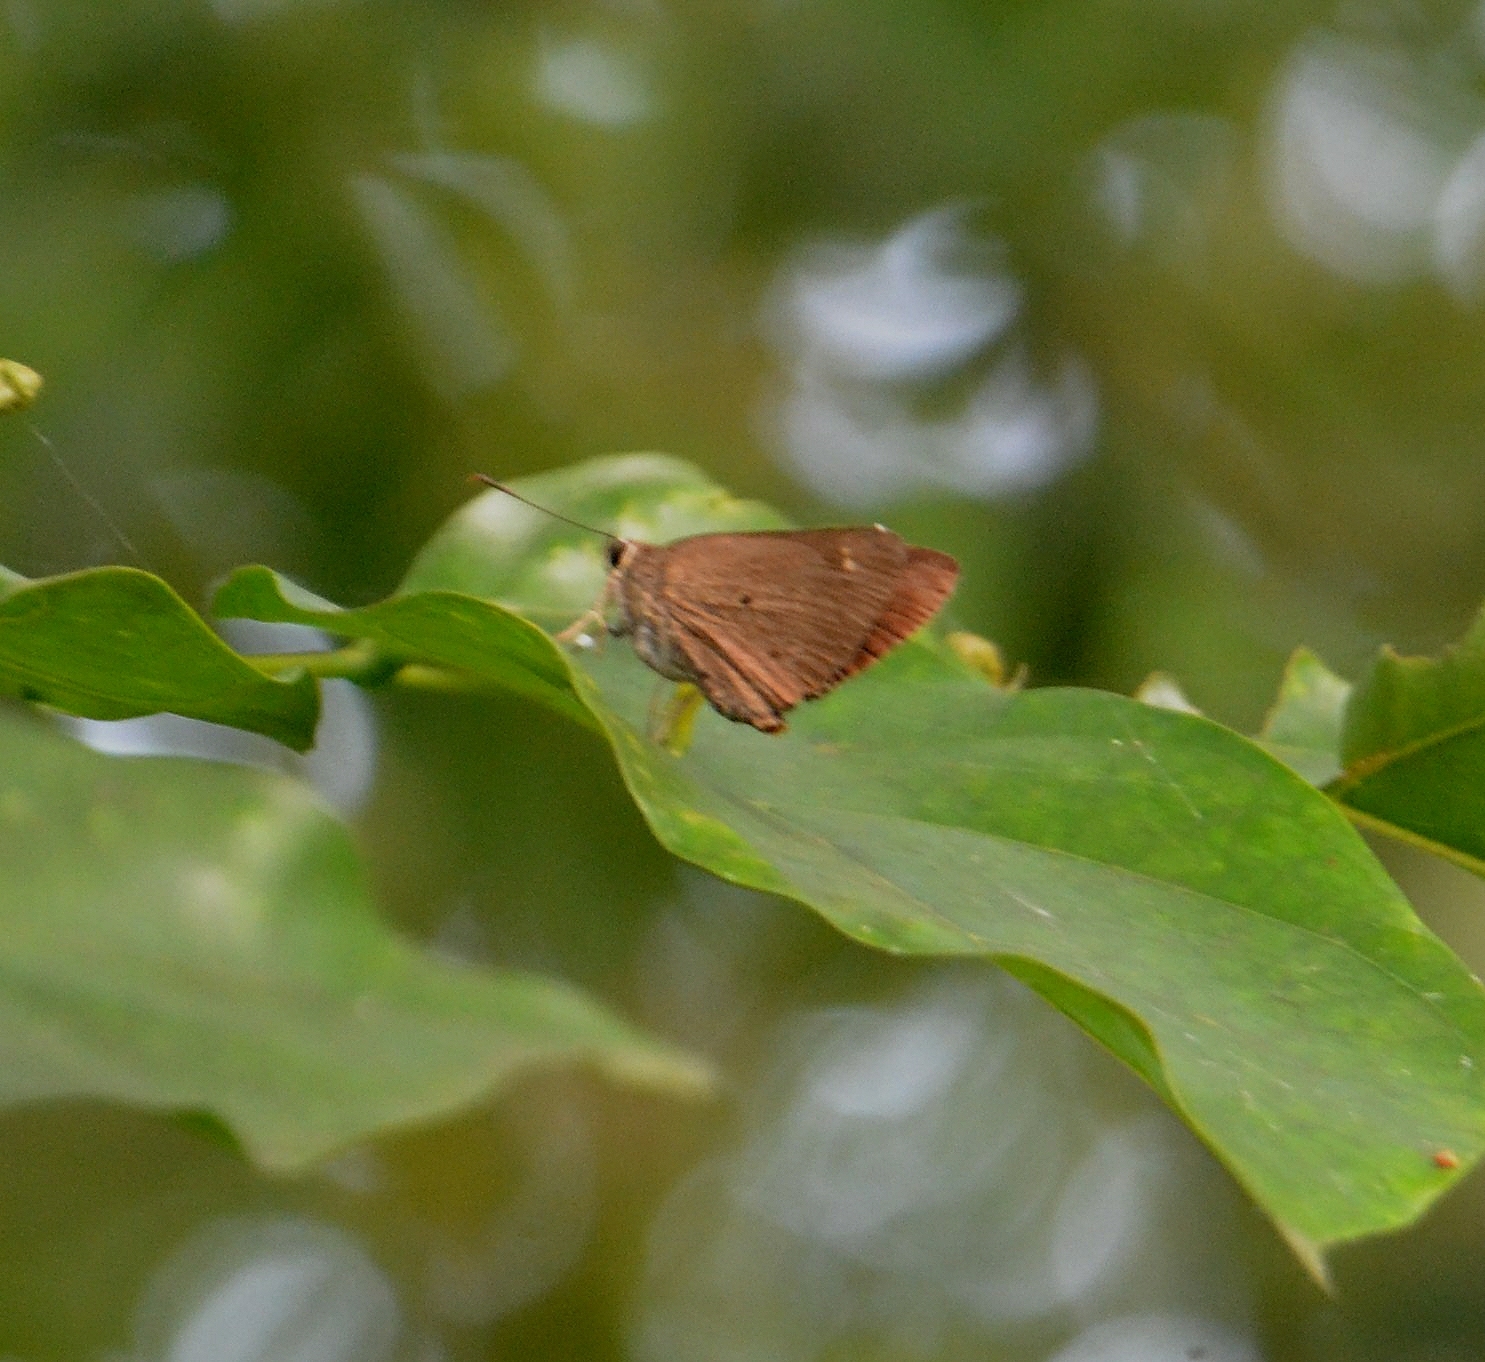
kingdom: Animalia
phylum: Arthropoda
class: Insecta
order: Lepidoptera
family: Hesperiidae
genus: Suastus
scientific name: Suastus gremius
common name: Indian palm bob
